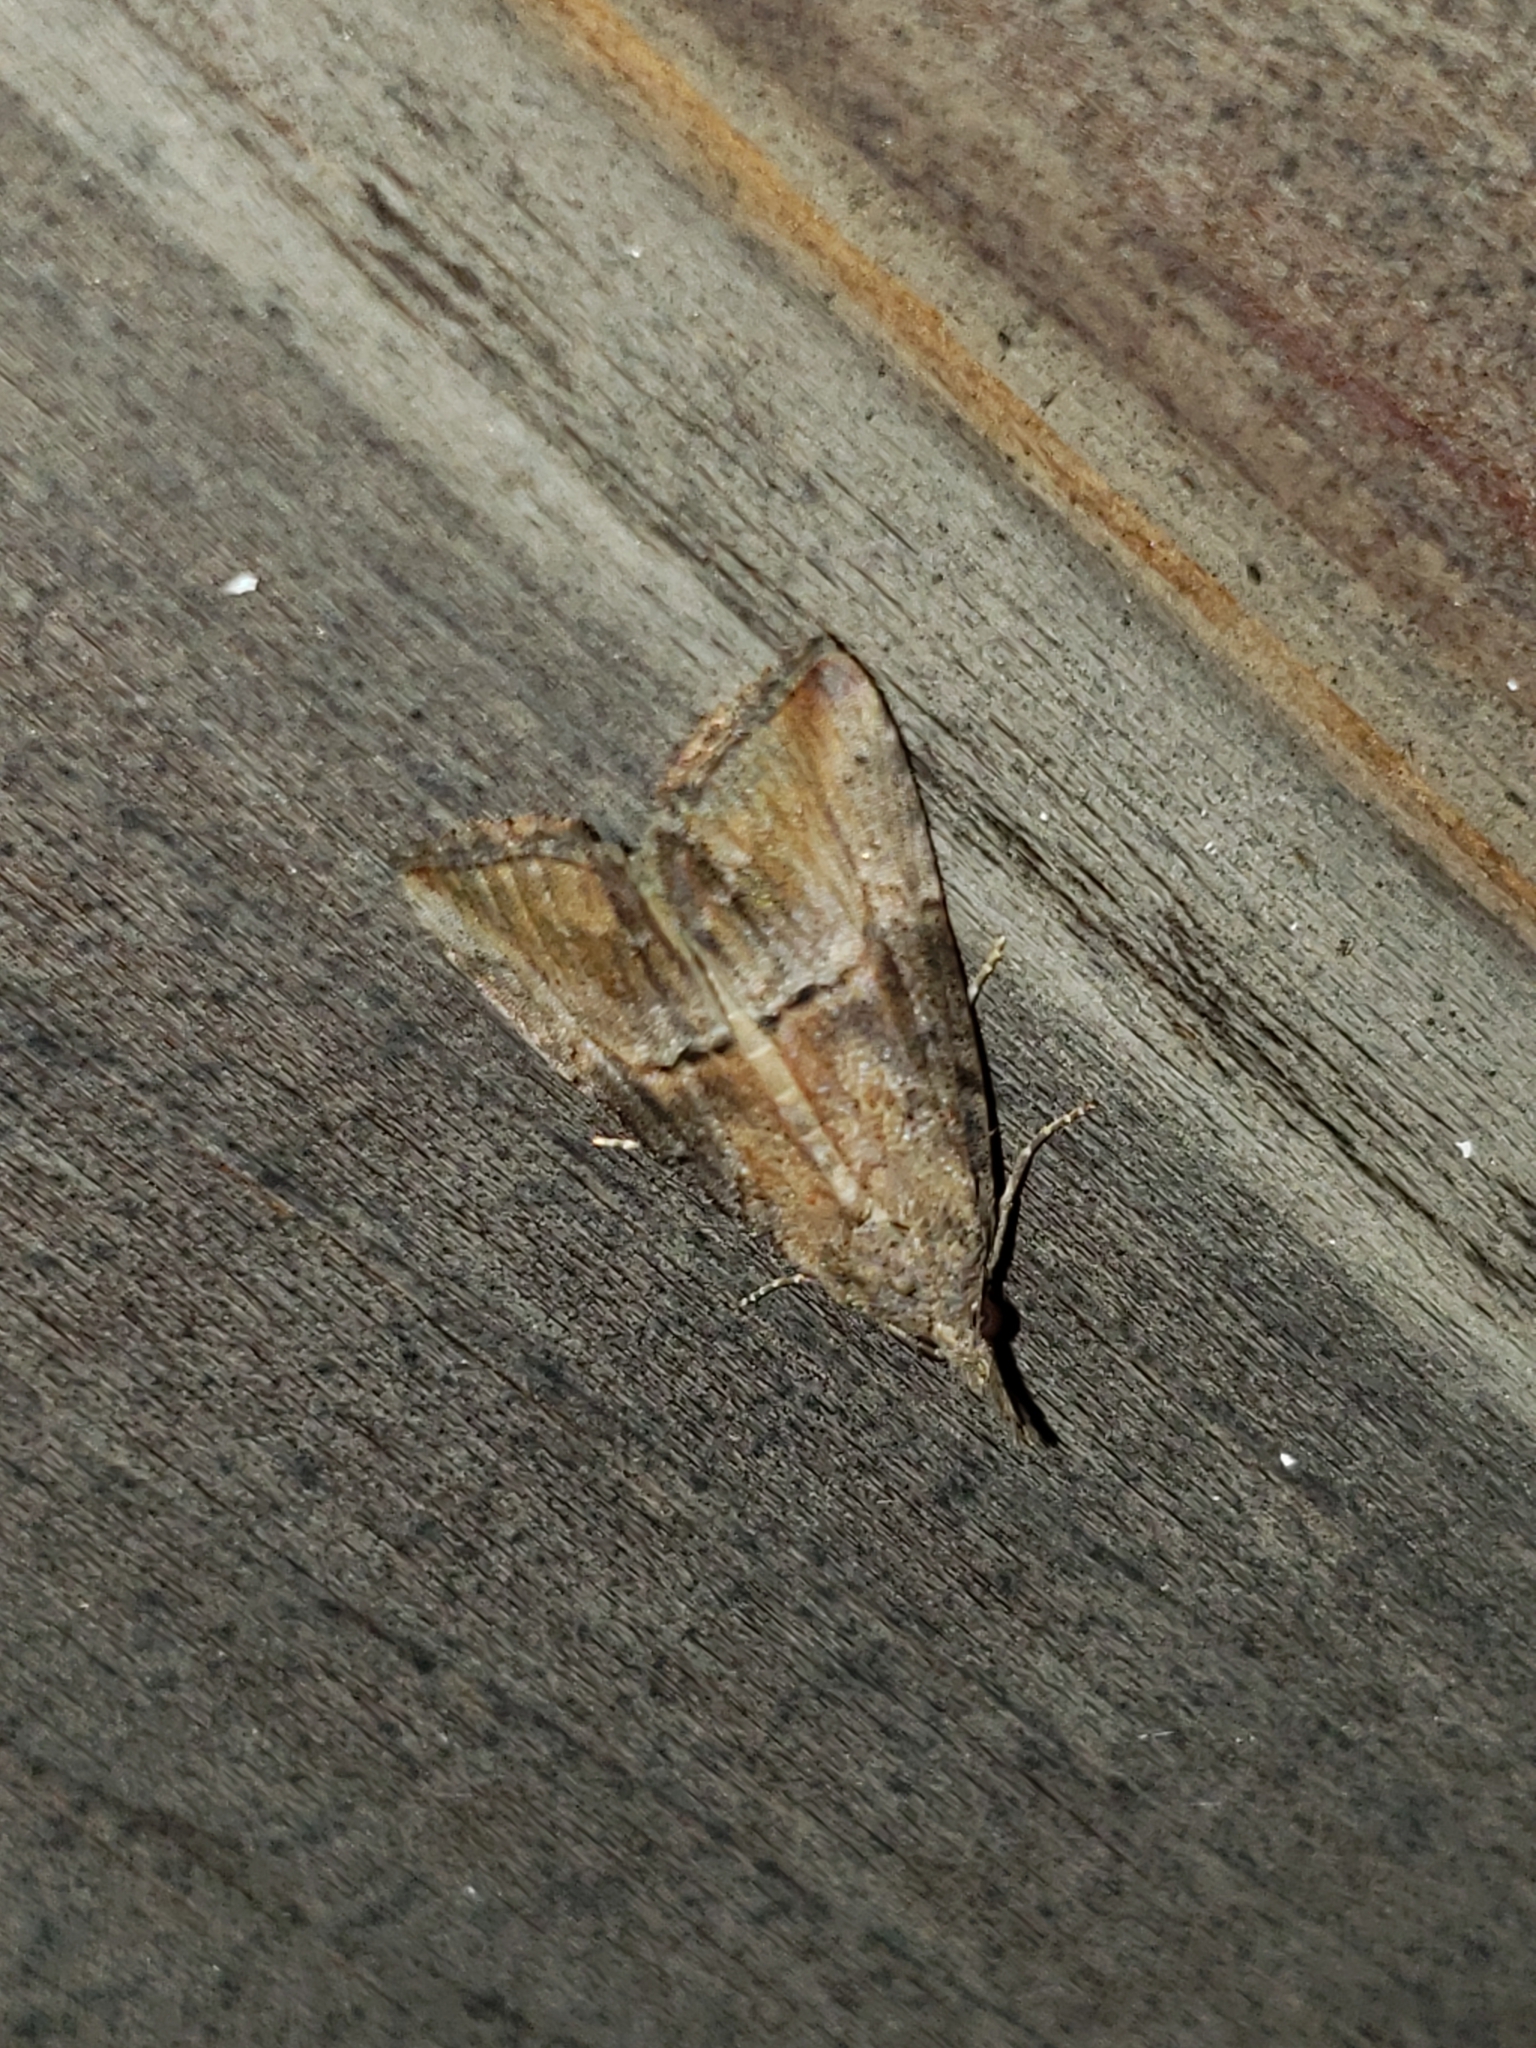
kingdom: Animalia
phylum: Arthropoda
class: Insecta
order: Lepidoptera
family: Erebidae
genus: Hypena
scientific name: Hypena scabra
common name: Green cloverworm
